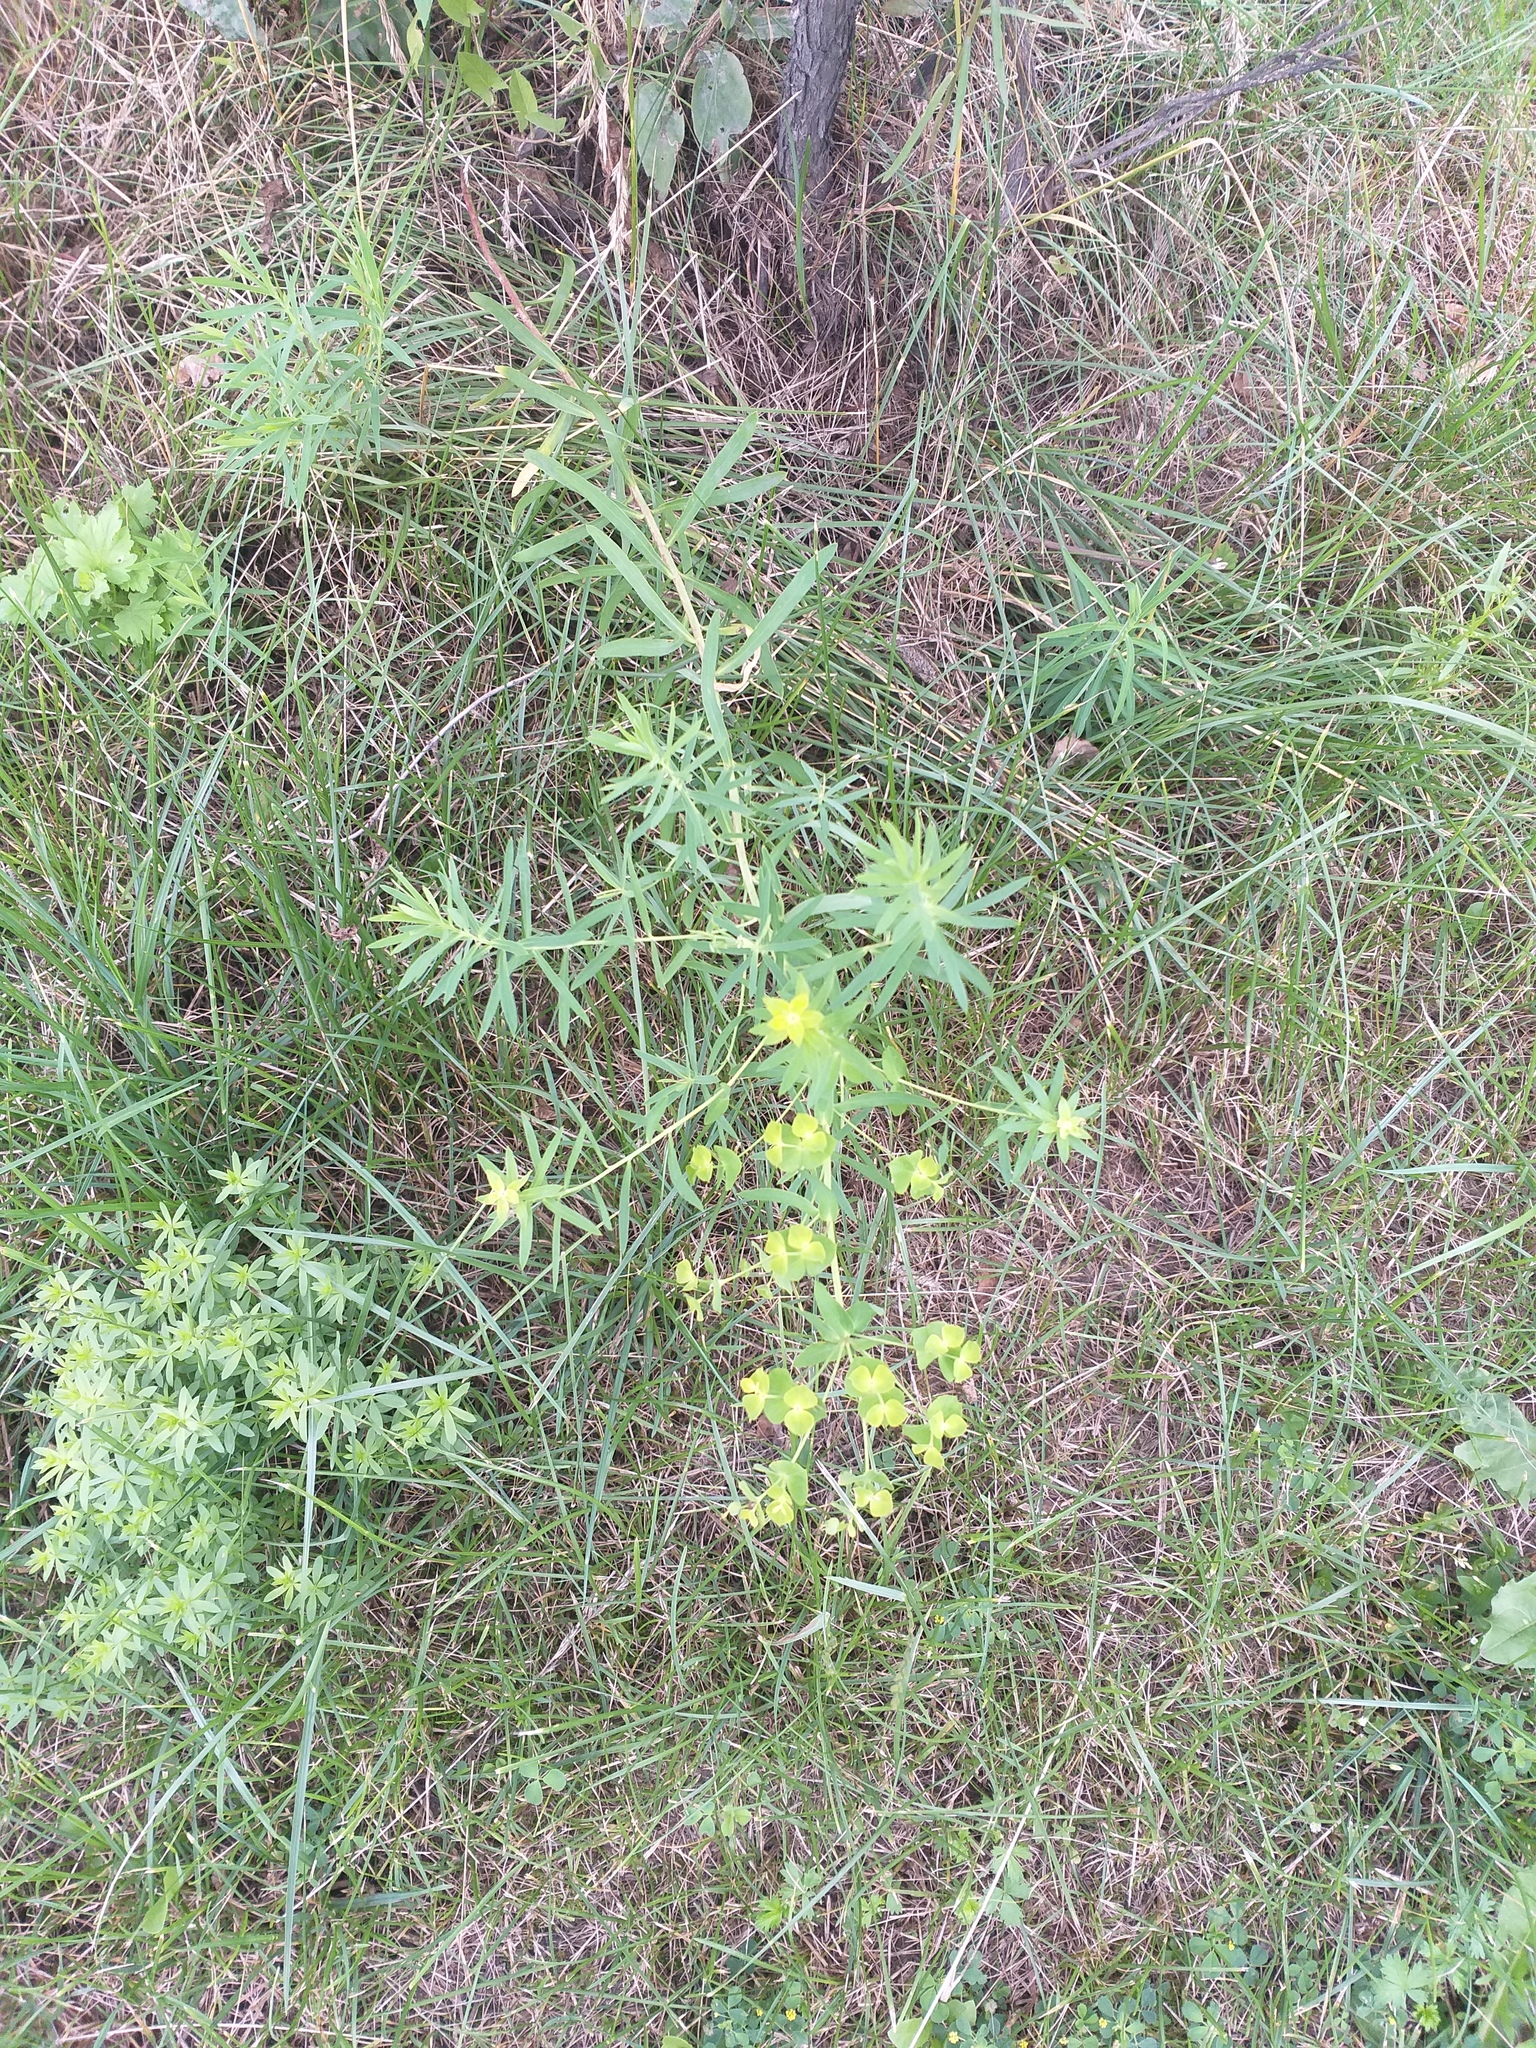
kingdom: Plantae
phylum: Tracheophyta
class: Magnoliopsida
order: Malpighiales
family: Euphorbiaceae
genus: Euphorbia
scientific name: Euphorbia virgata
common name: Leafy spurge
